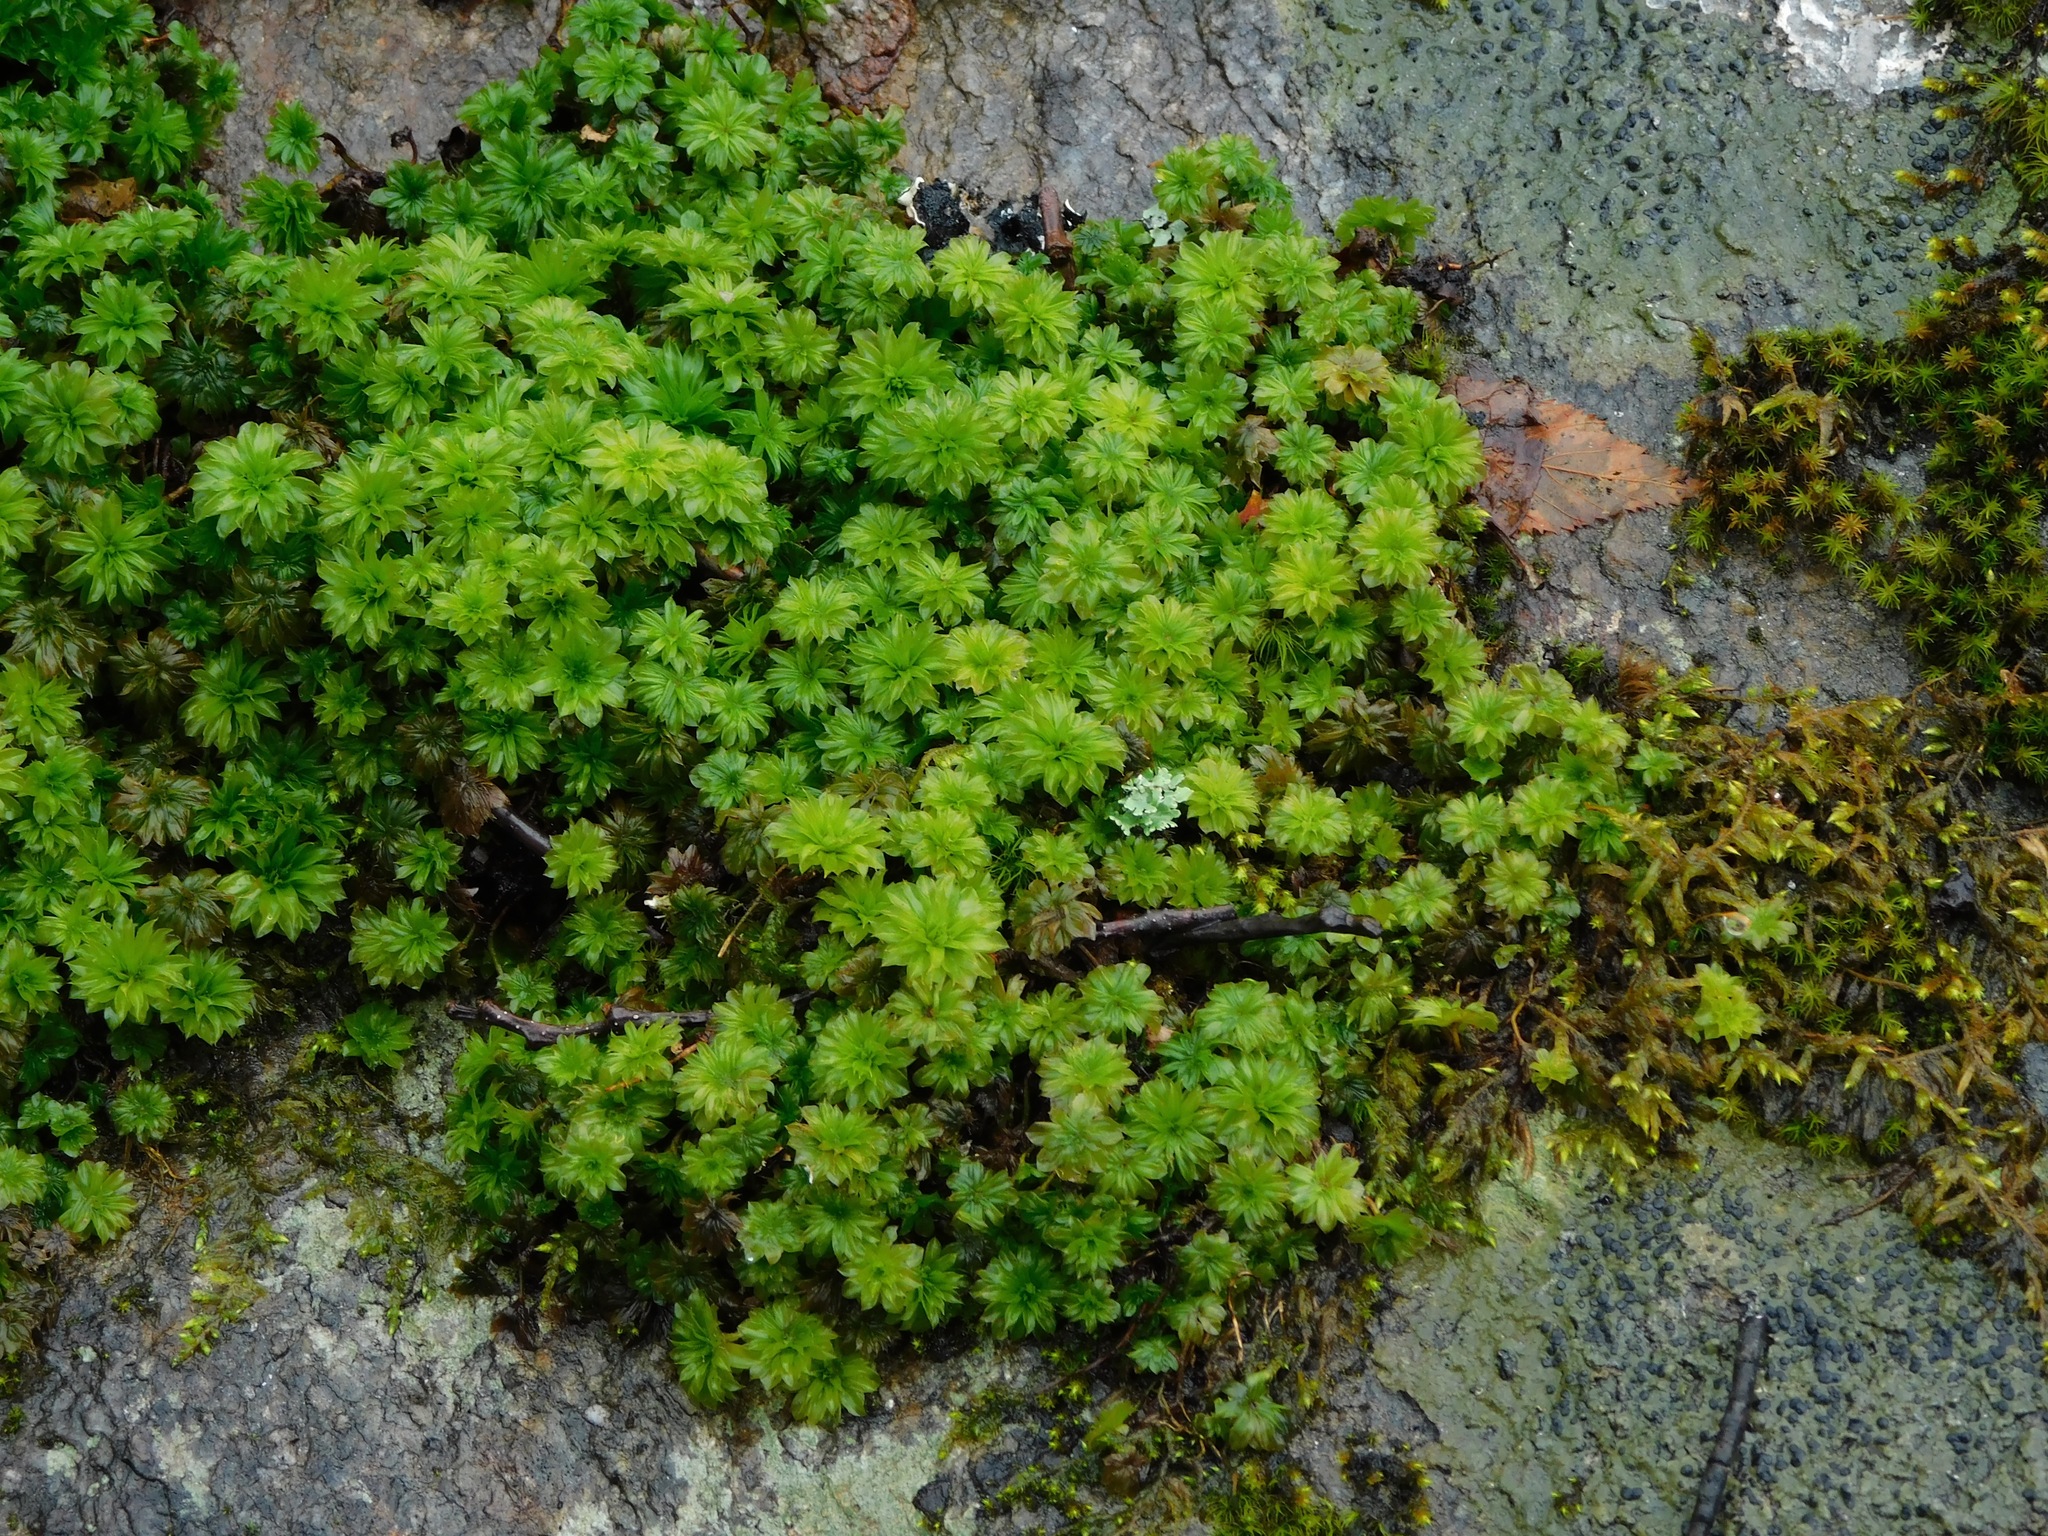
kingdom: Plantae
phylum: Bryophyta
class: Bryopsida
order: Bryales
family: Bryaceae
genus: Rhodobryum
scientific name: Rhodobryum ontariense
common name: Ontario rhodobryum moss
